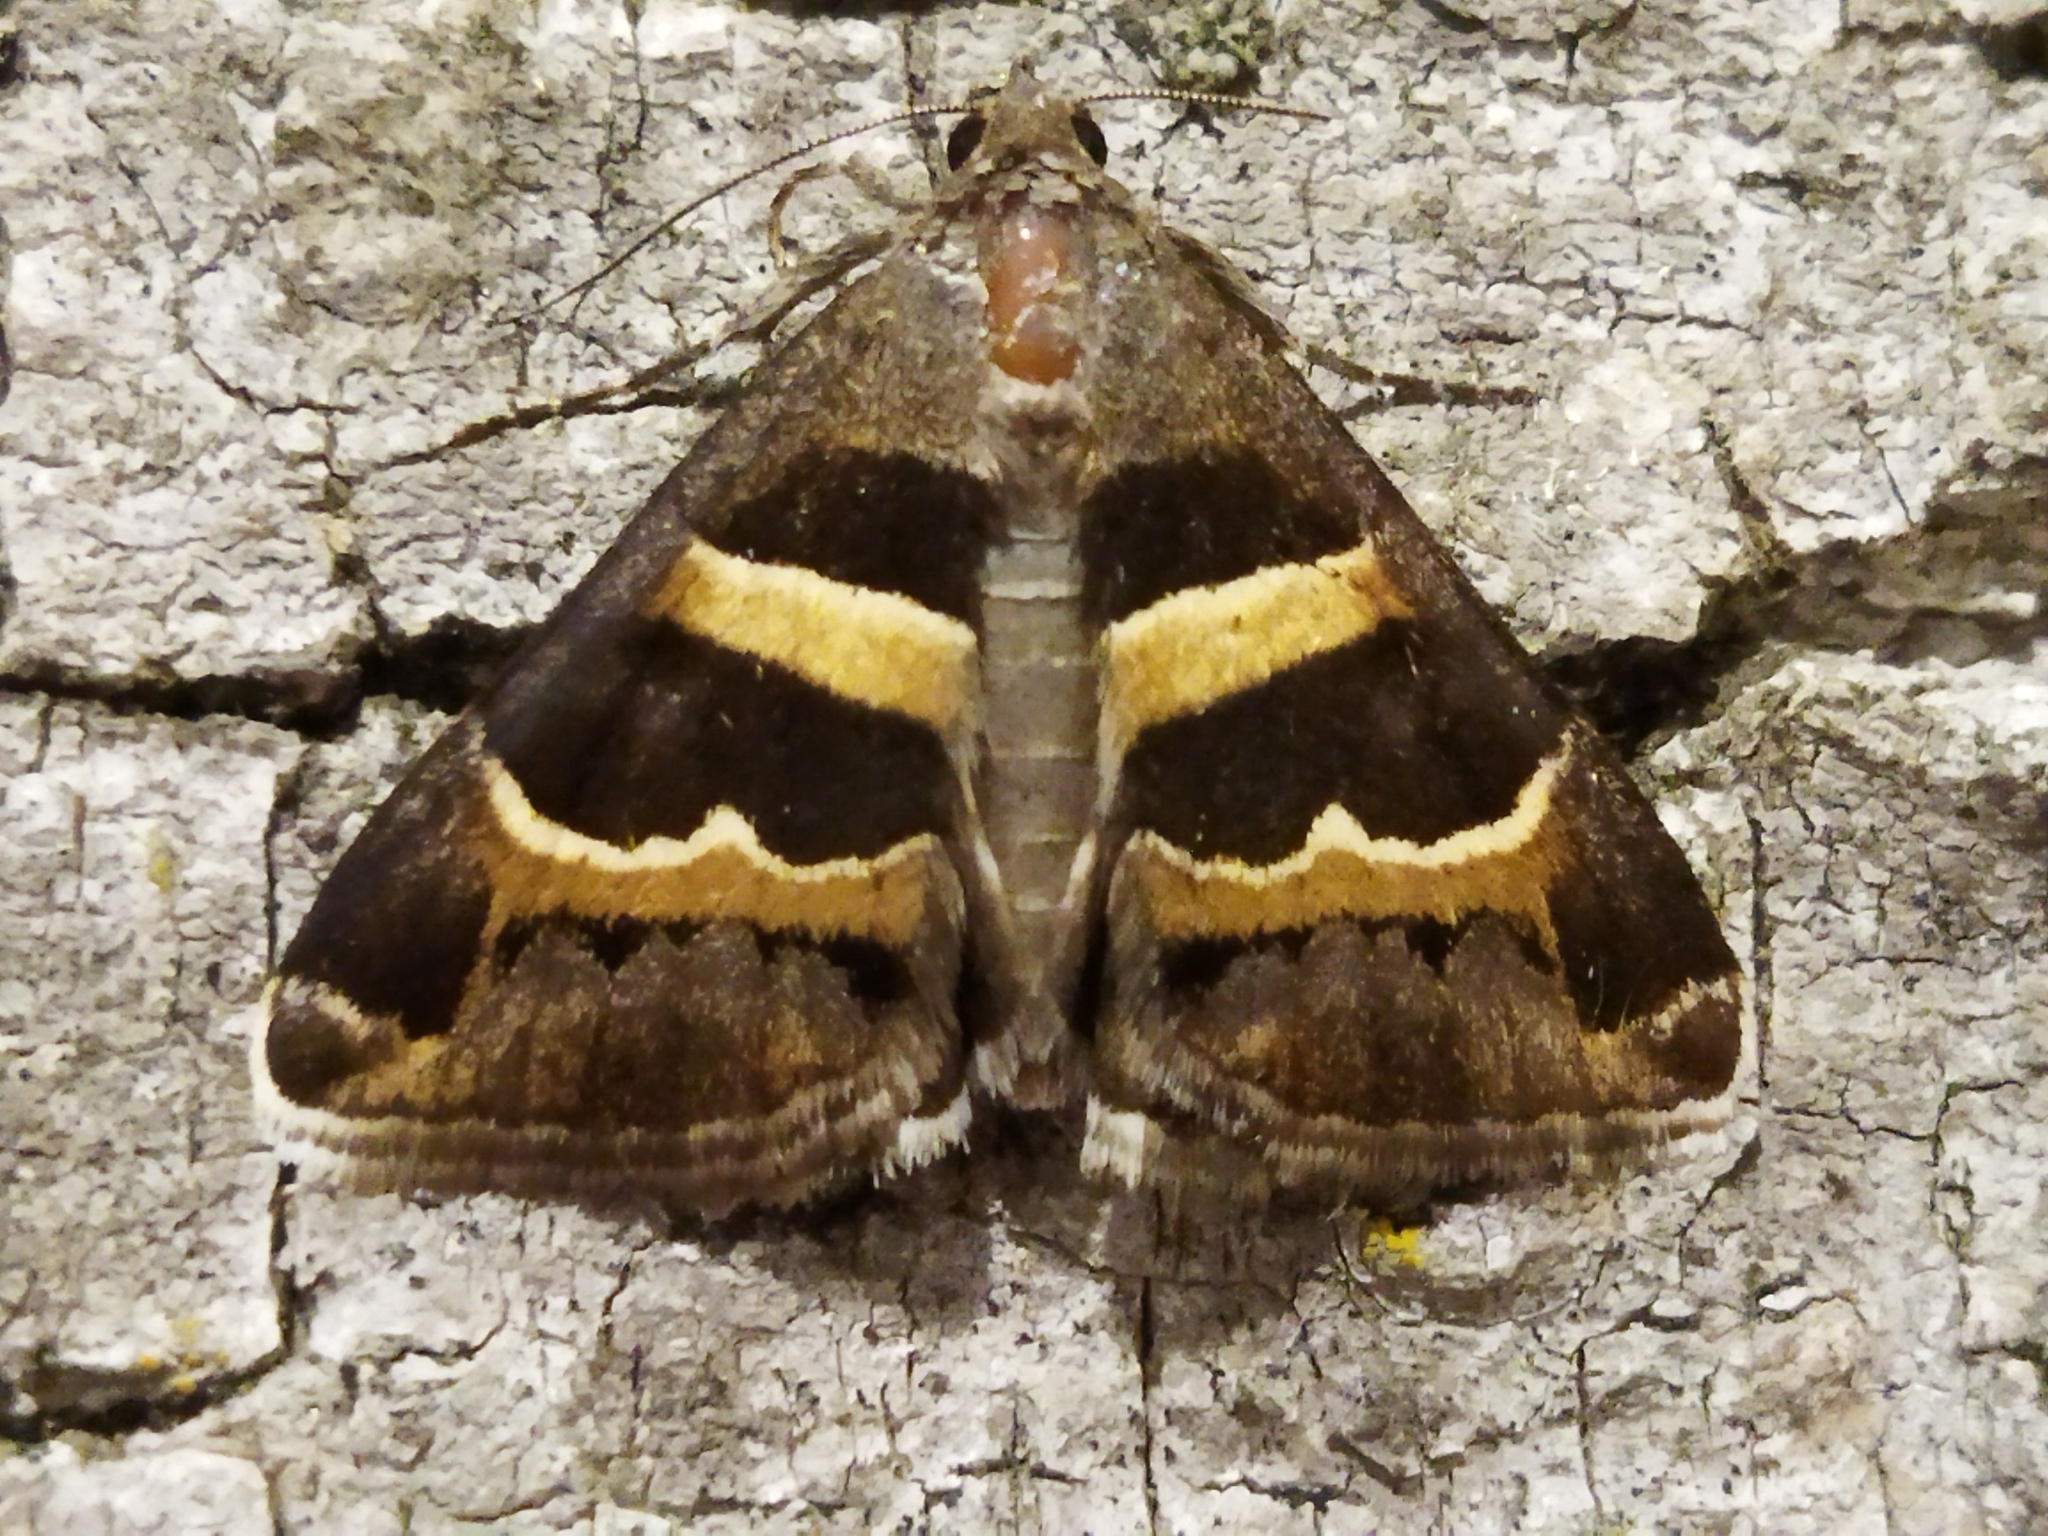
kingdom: Animalia
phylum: Arthropoda
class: Insecta
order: Lepidoptera
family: Erebidae
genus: Grammodes
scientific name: Grammodes stolida
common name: Geometrician
